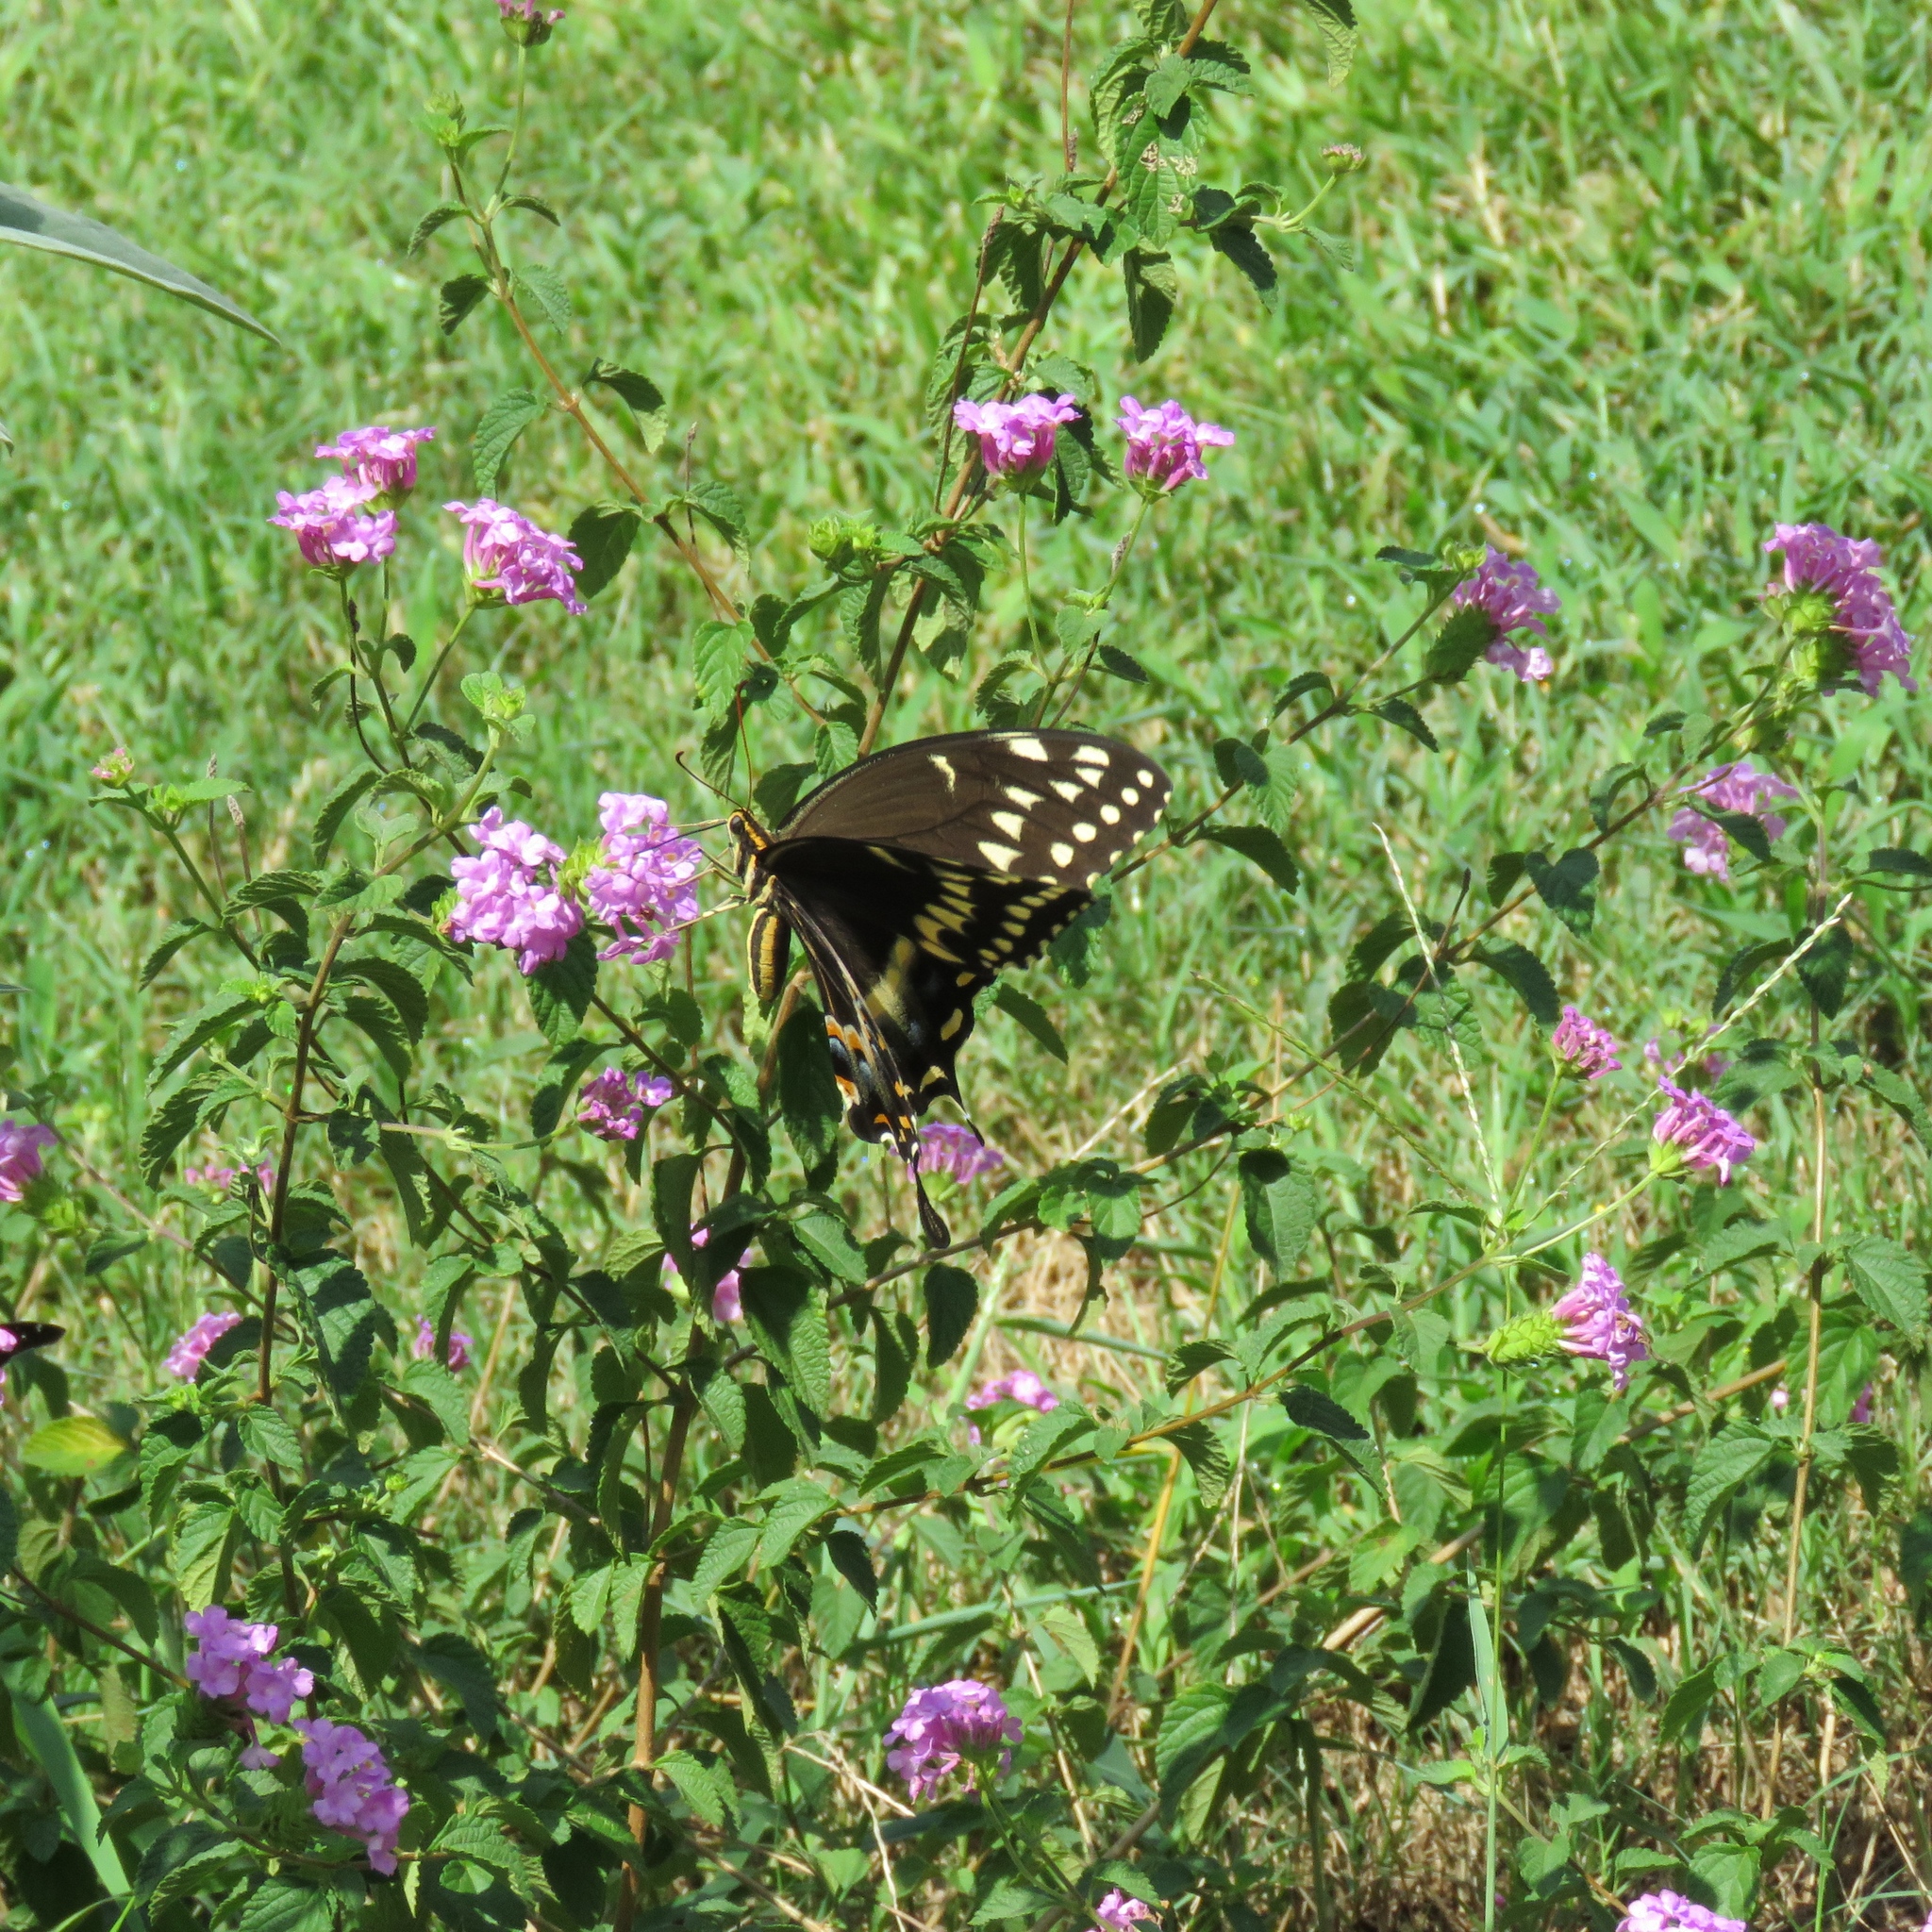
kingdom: Animalia
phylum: Arthropoda
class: Insecta
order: Lepidoptera
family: Papilionidae
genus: Papilio
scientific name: Papilio palamedes
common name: Palamedes swallowtail
